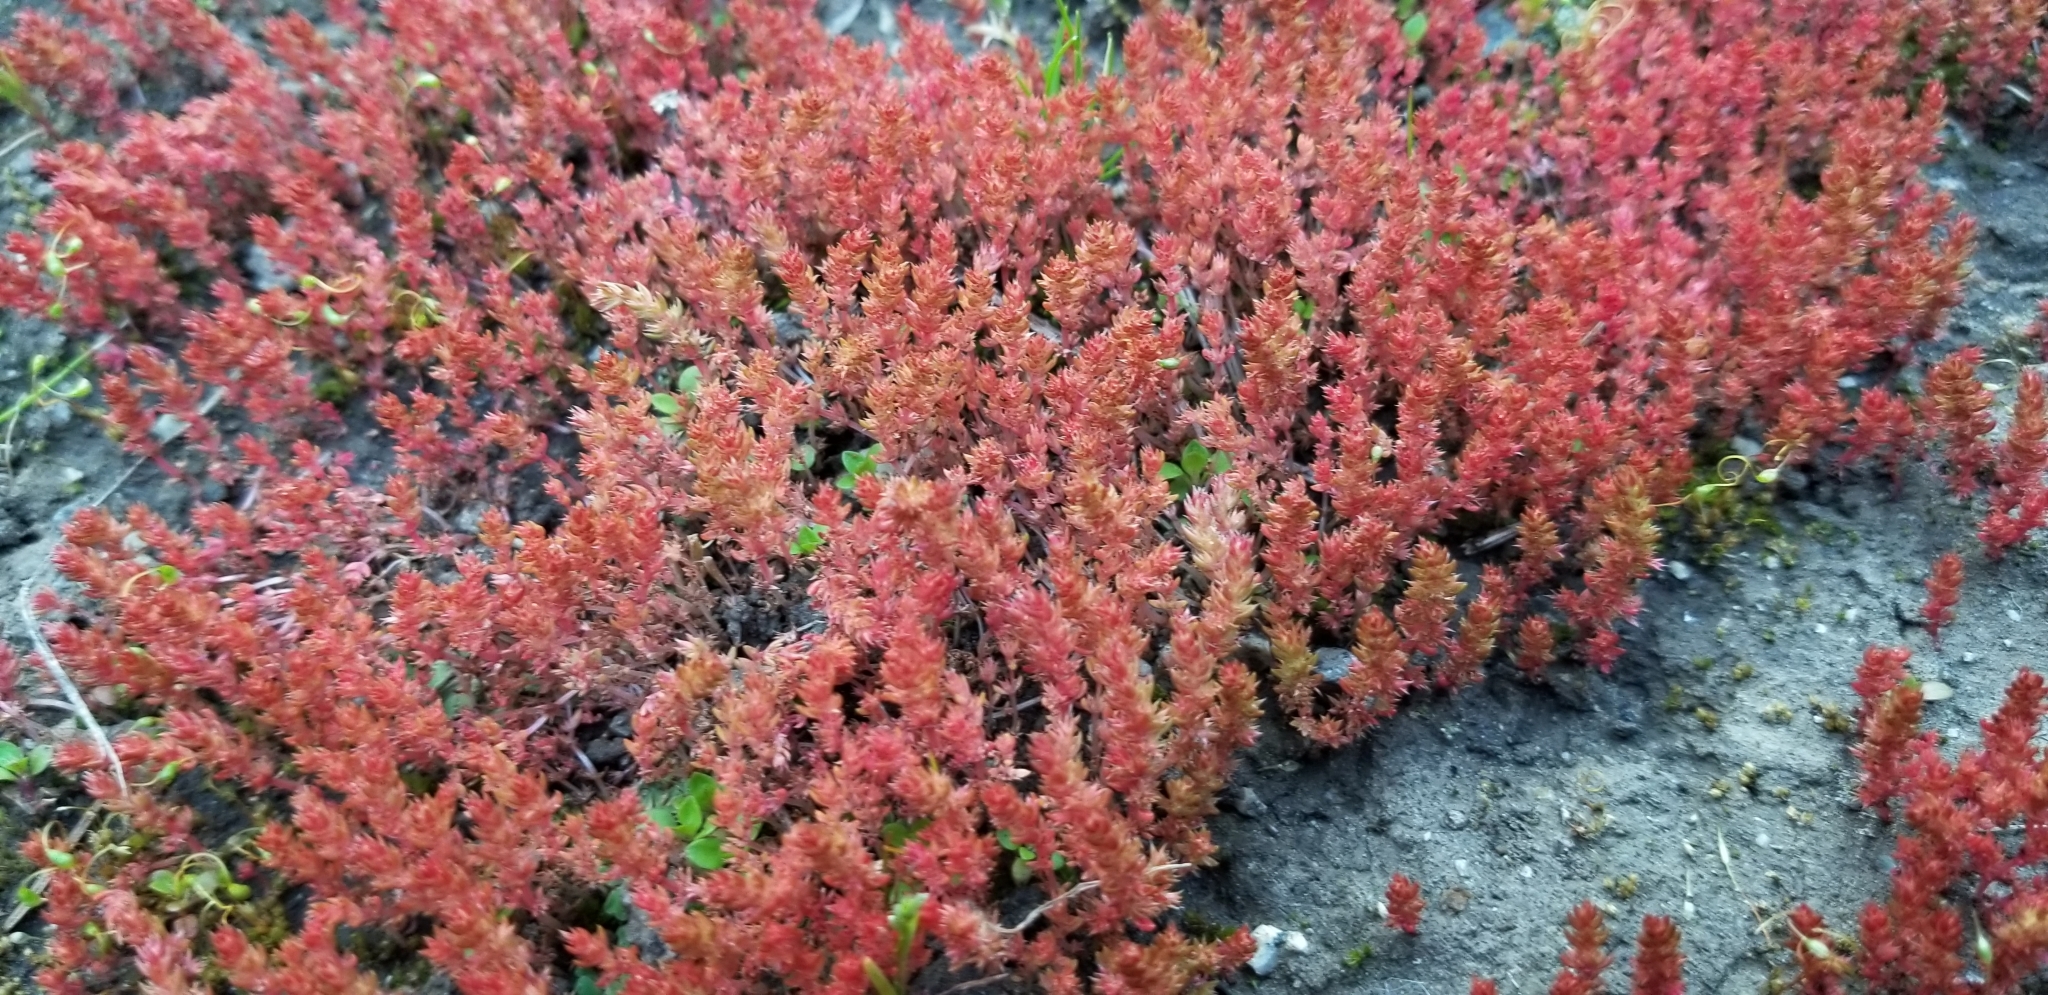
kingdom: Plantae
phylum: Tracheophyta
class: Magnoliopsida
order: Saxifragales
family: Crassulaceae
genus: Crassula
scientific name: Crassula tillaea
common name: Mossy stonecrop
